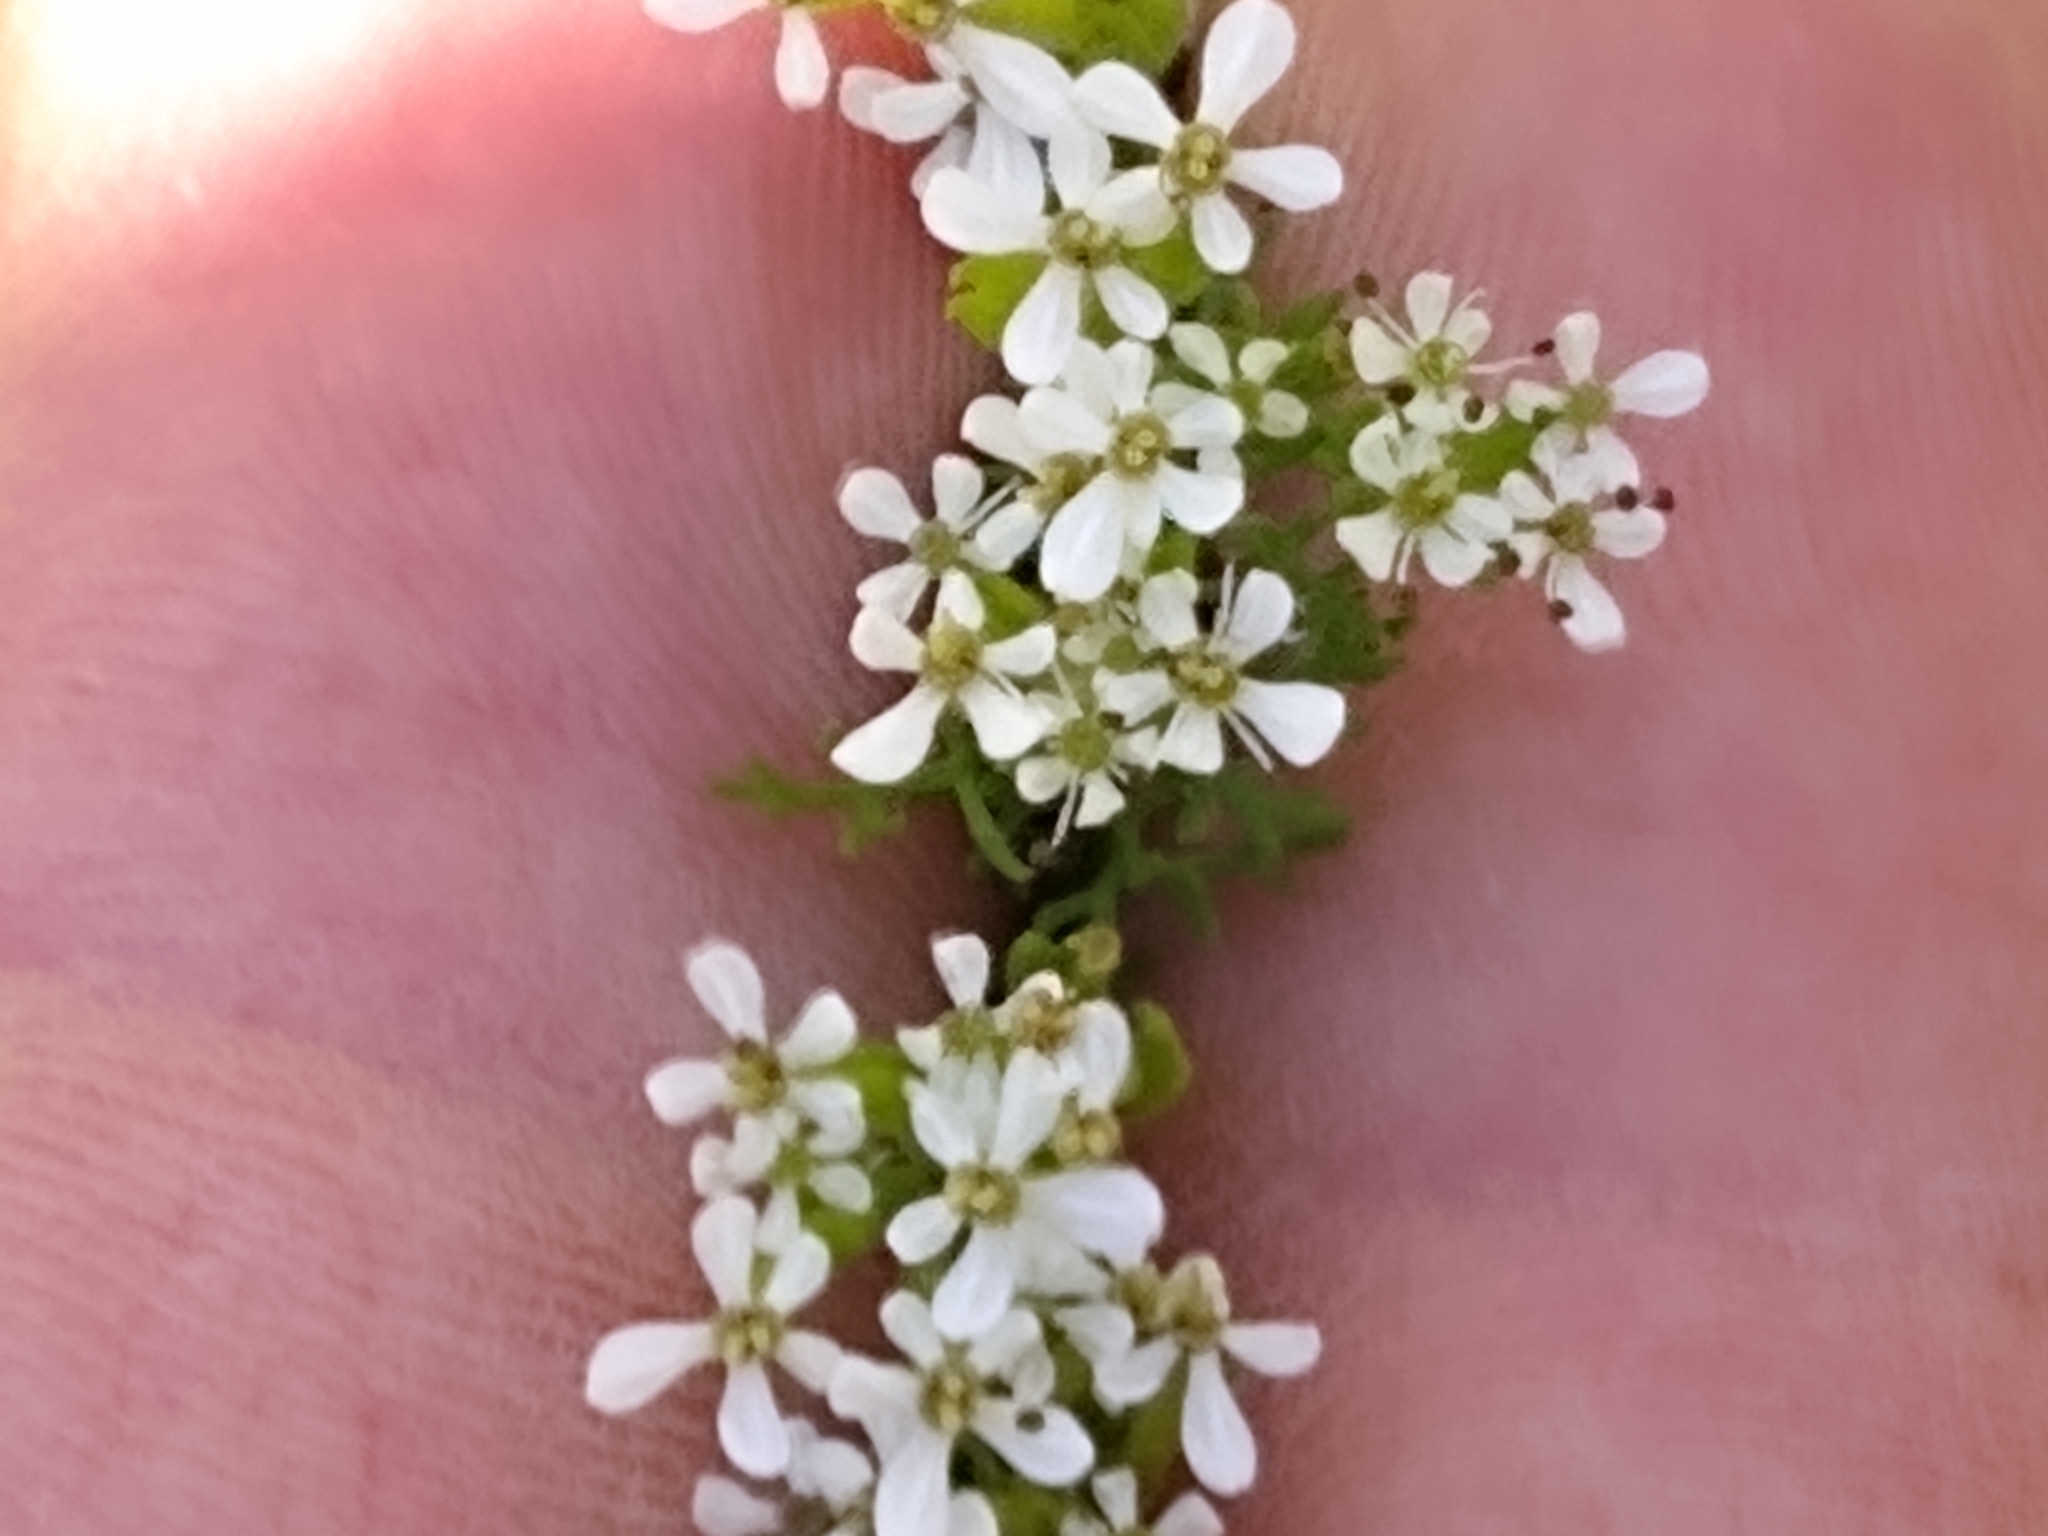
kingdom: Plantae
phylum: Tracheophyta
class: Magnoliopsida
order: Apiales
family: Apiaceae
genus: Scandix
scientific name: Scandix pecten-veneris
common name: Shepherd's-needle
